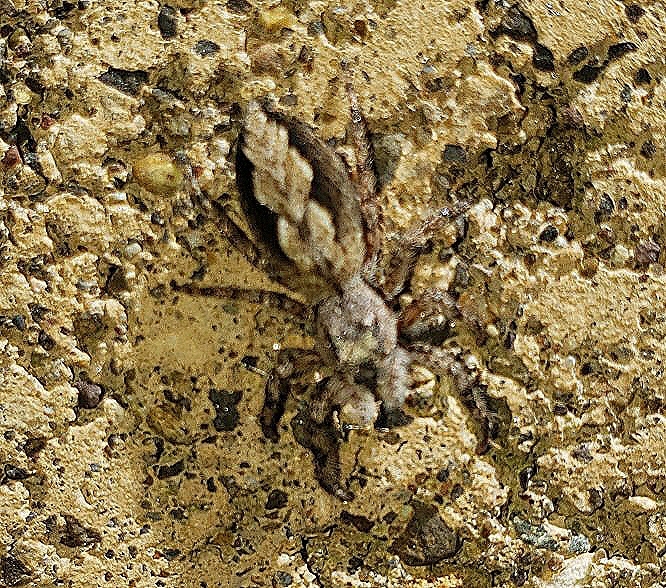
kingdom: Animalia
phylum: Arthropoda
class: Arachnida
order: Araneae
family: Salticidae
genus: Platycryptus
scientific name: Platycryptus undatus
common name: Tan jumping spider
